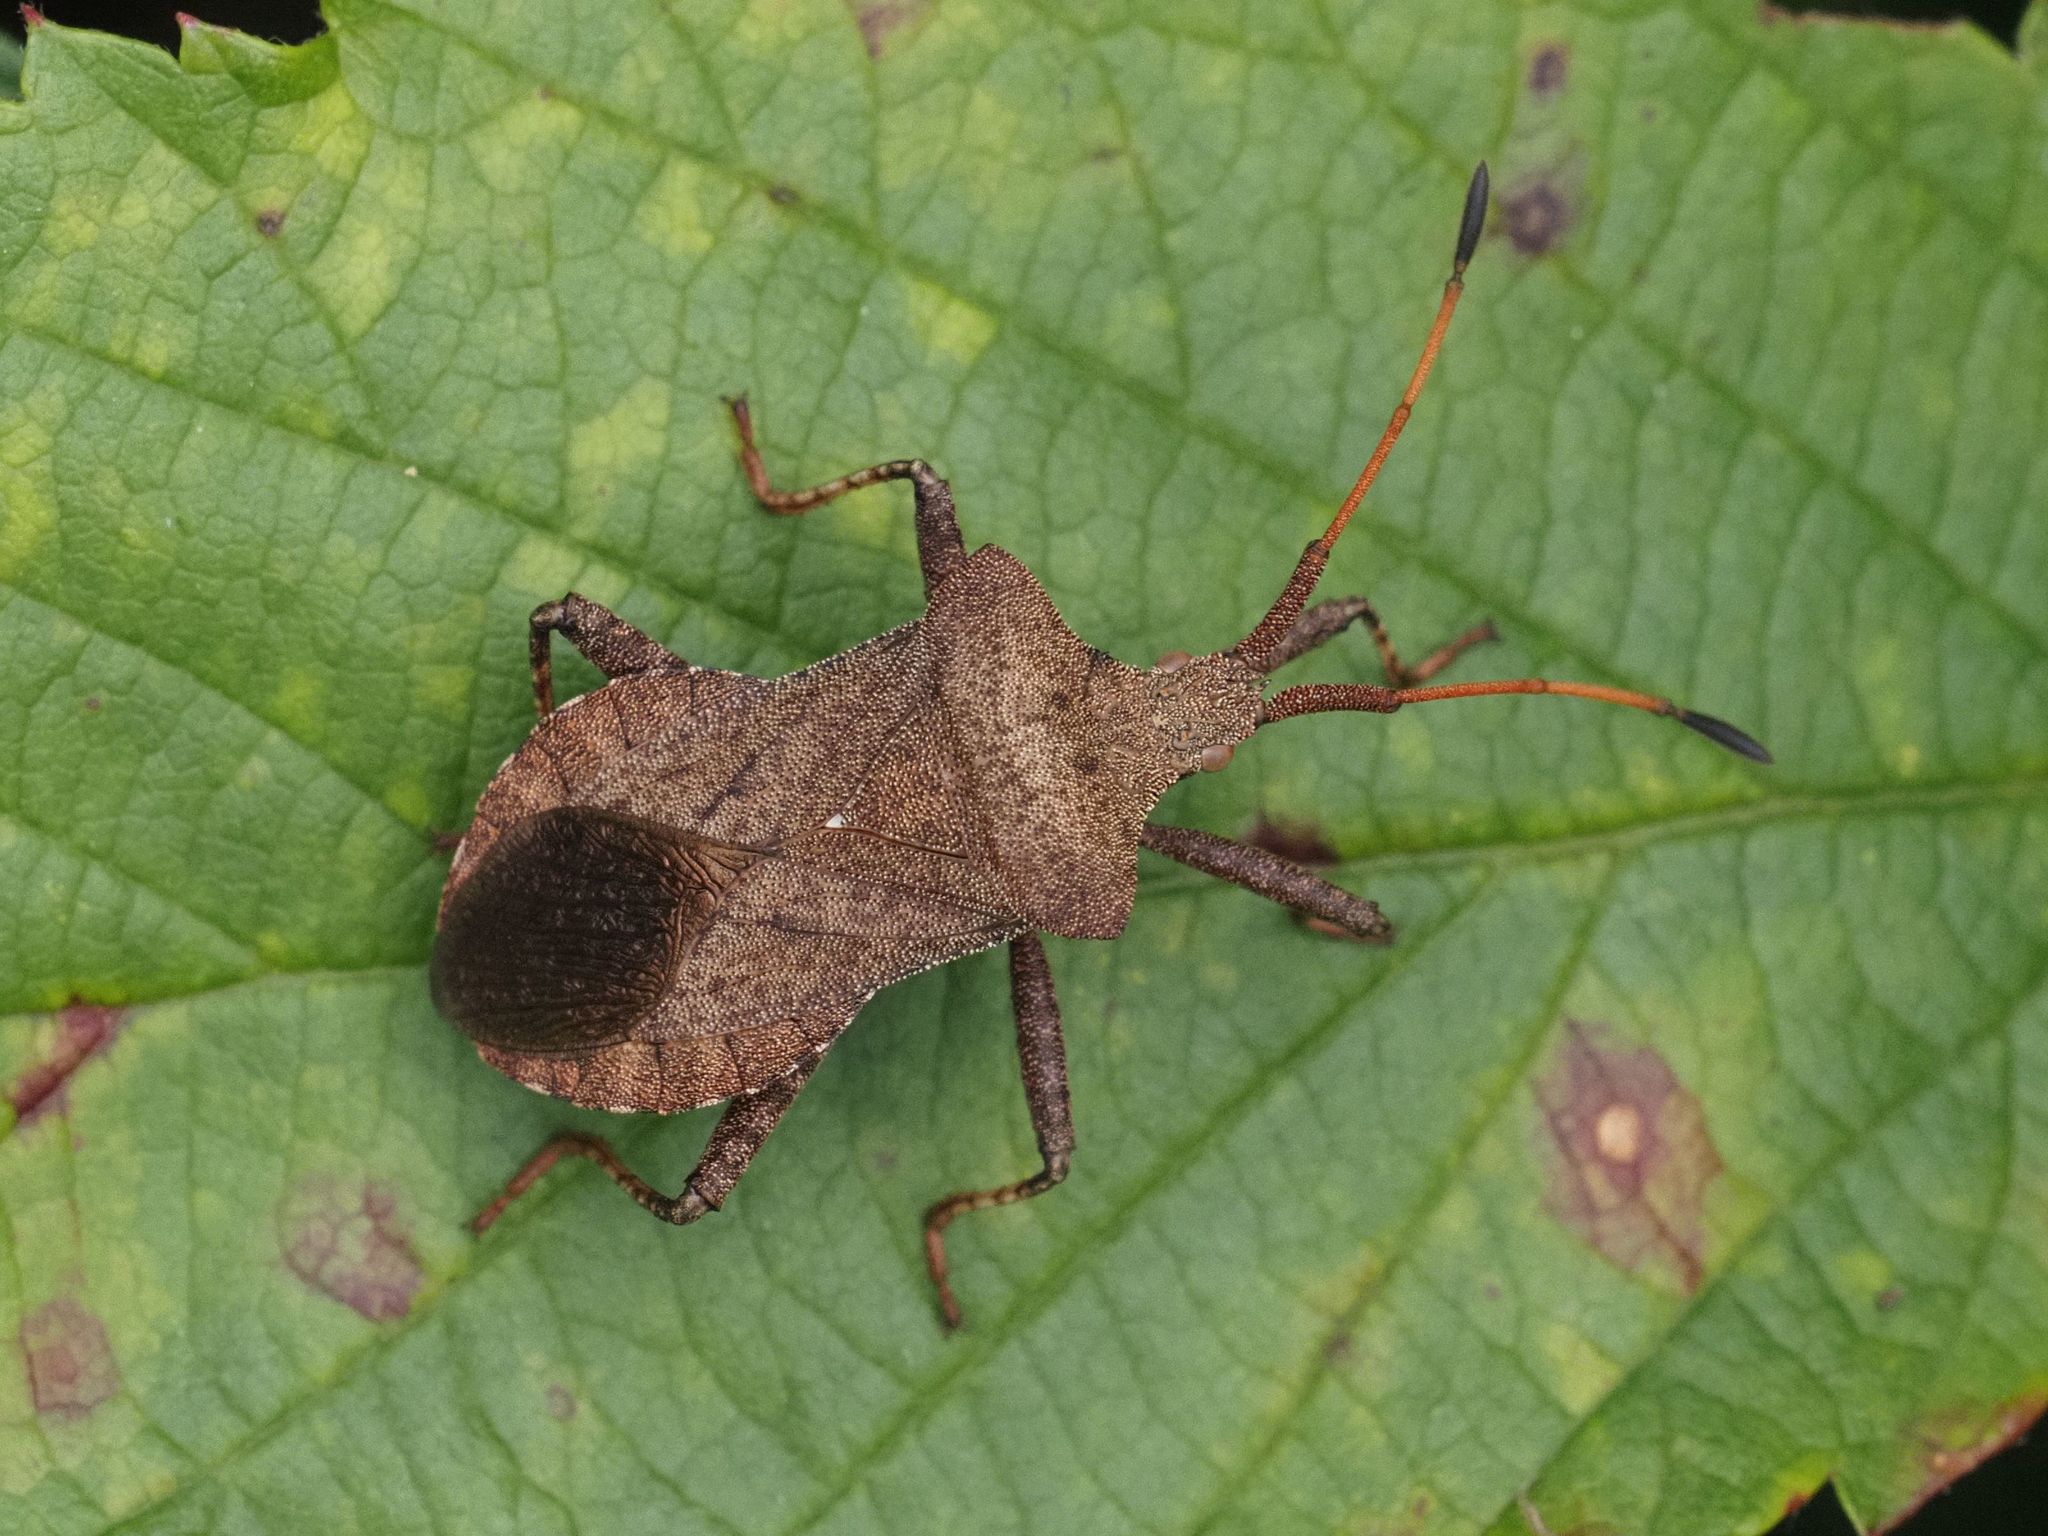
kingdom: Animalia
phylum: Arthropoda
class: Insecta
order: Hemiptera
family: Coreidae
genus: Coreus
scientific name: Coreus marginatus
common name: Dock bug
